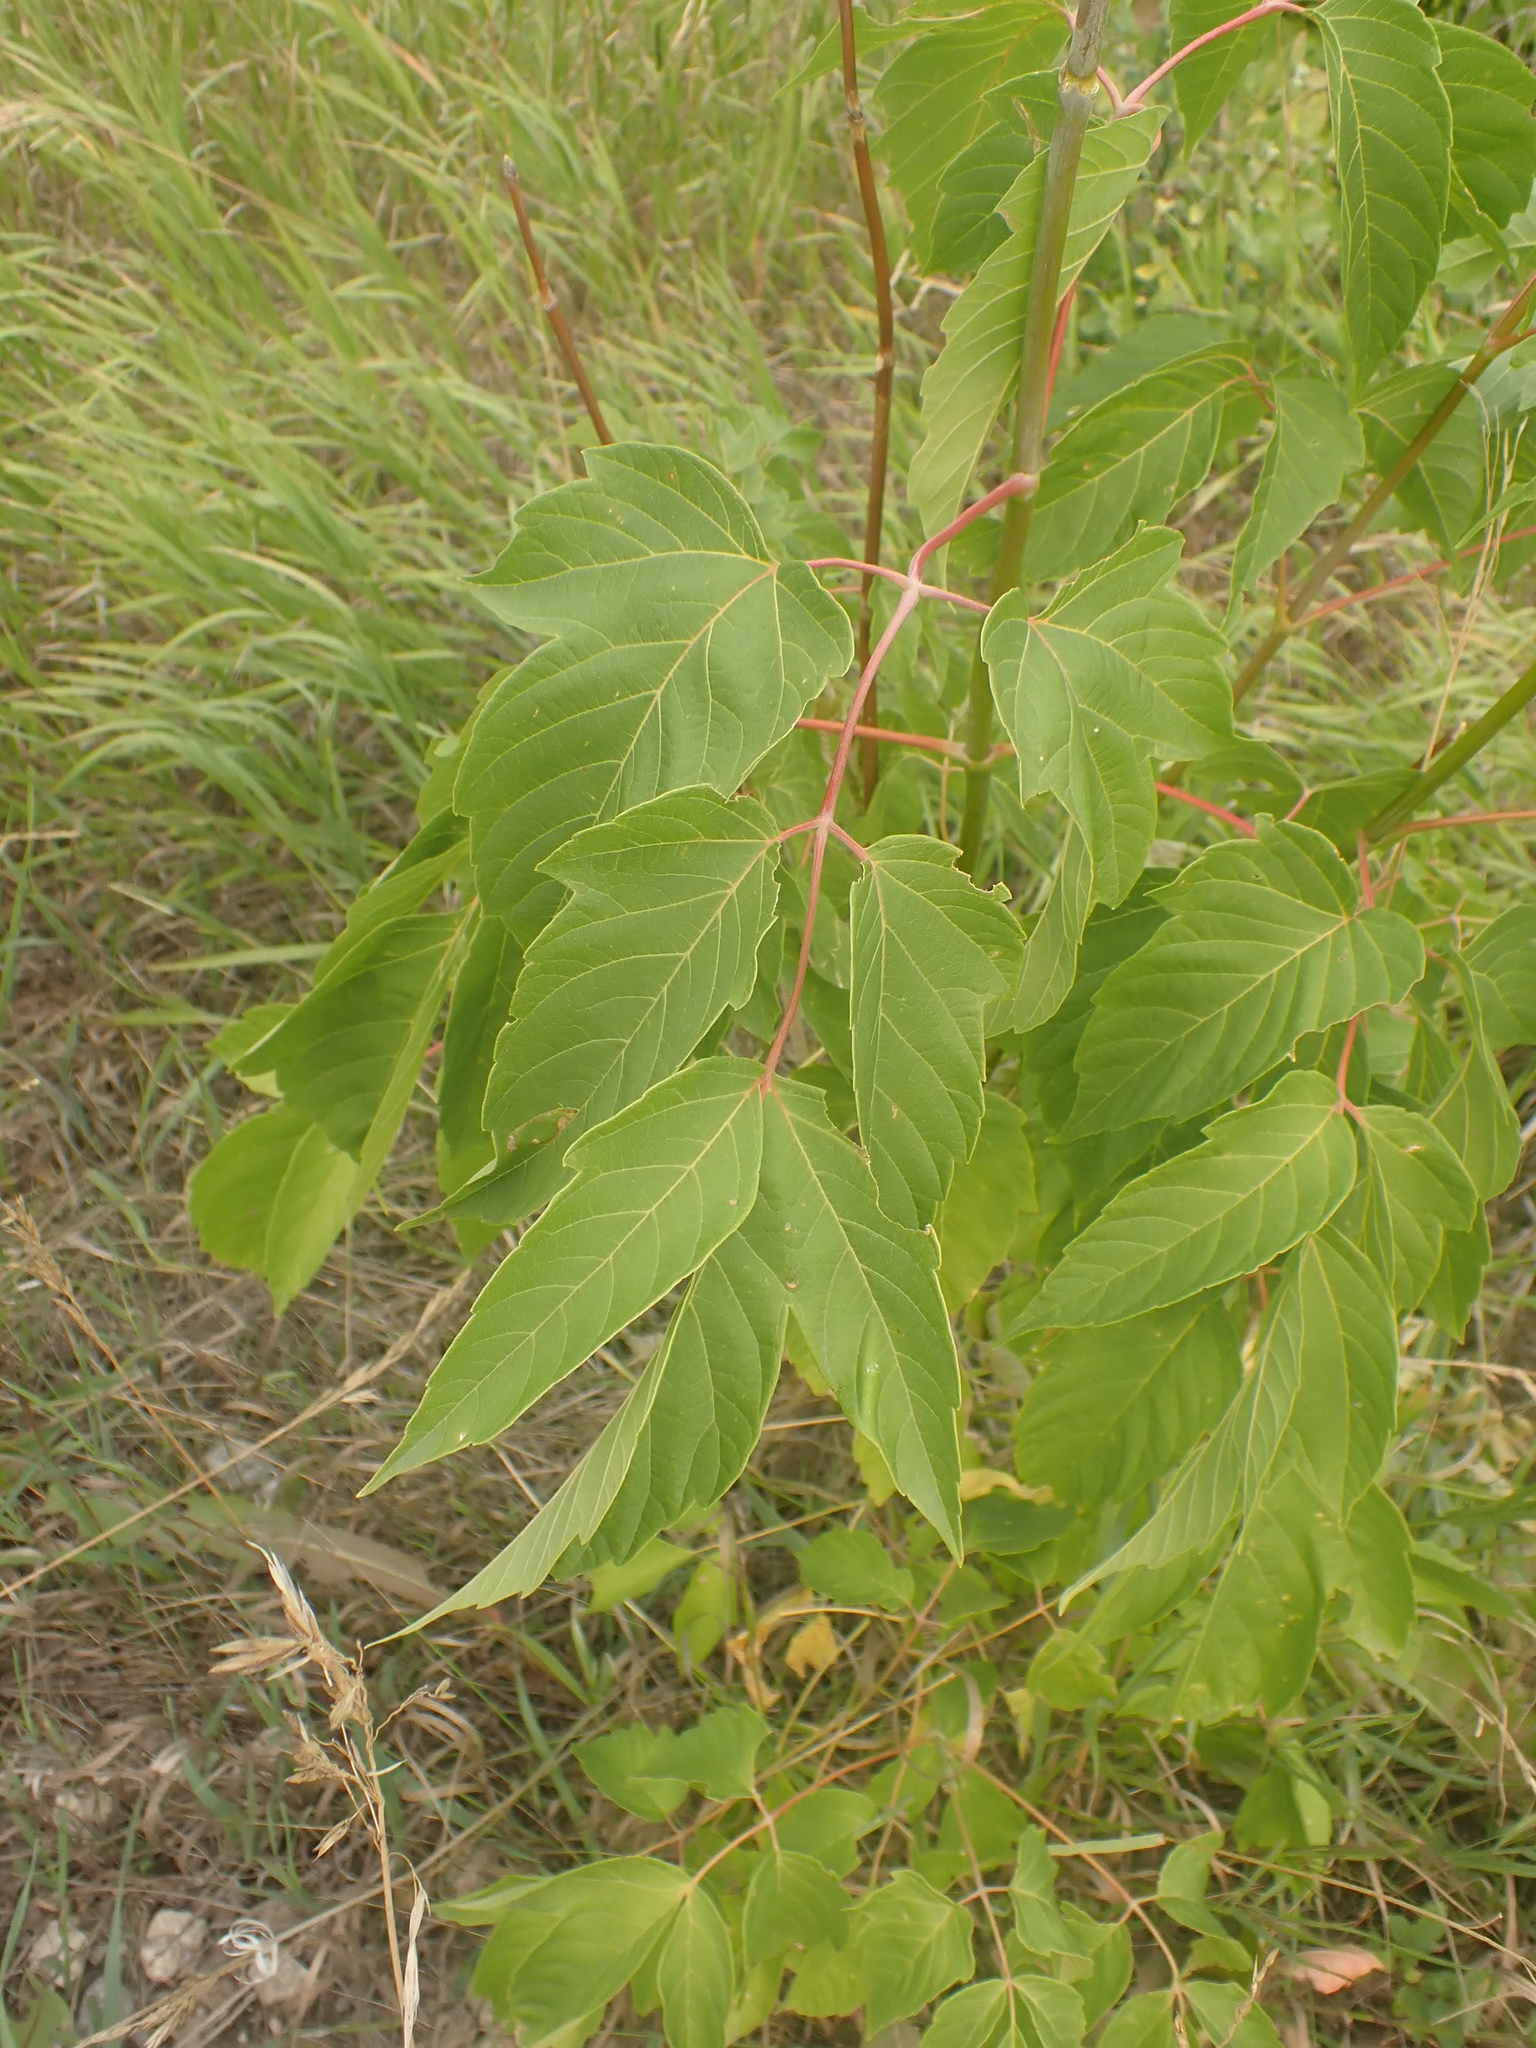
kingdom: Plantae
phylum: Tracheophyta
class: Magnoliopsida
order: Sapindales
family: Sapindaceae
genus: Acer
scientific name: Acer negundo
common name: Ashleaf maple
